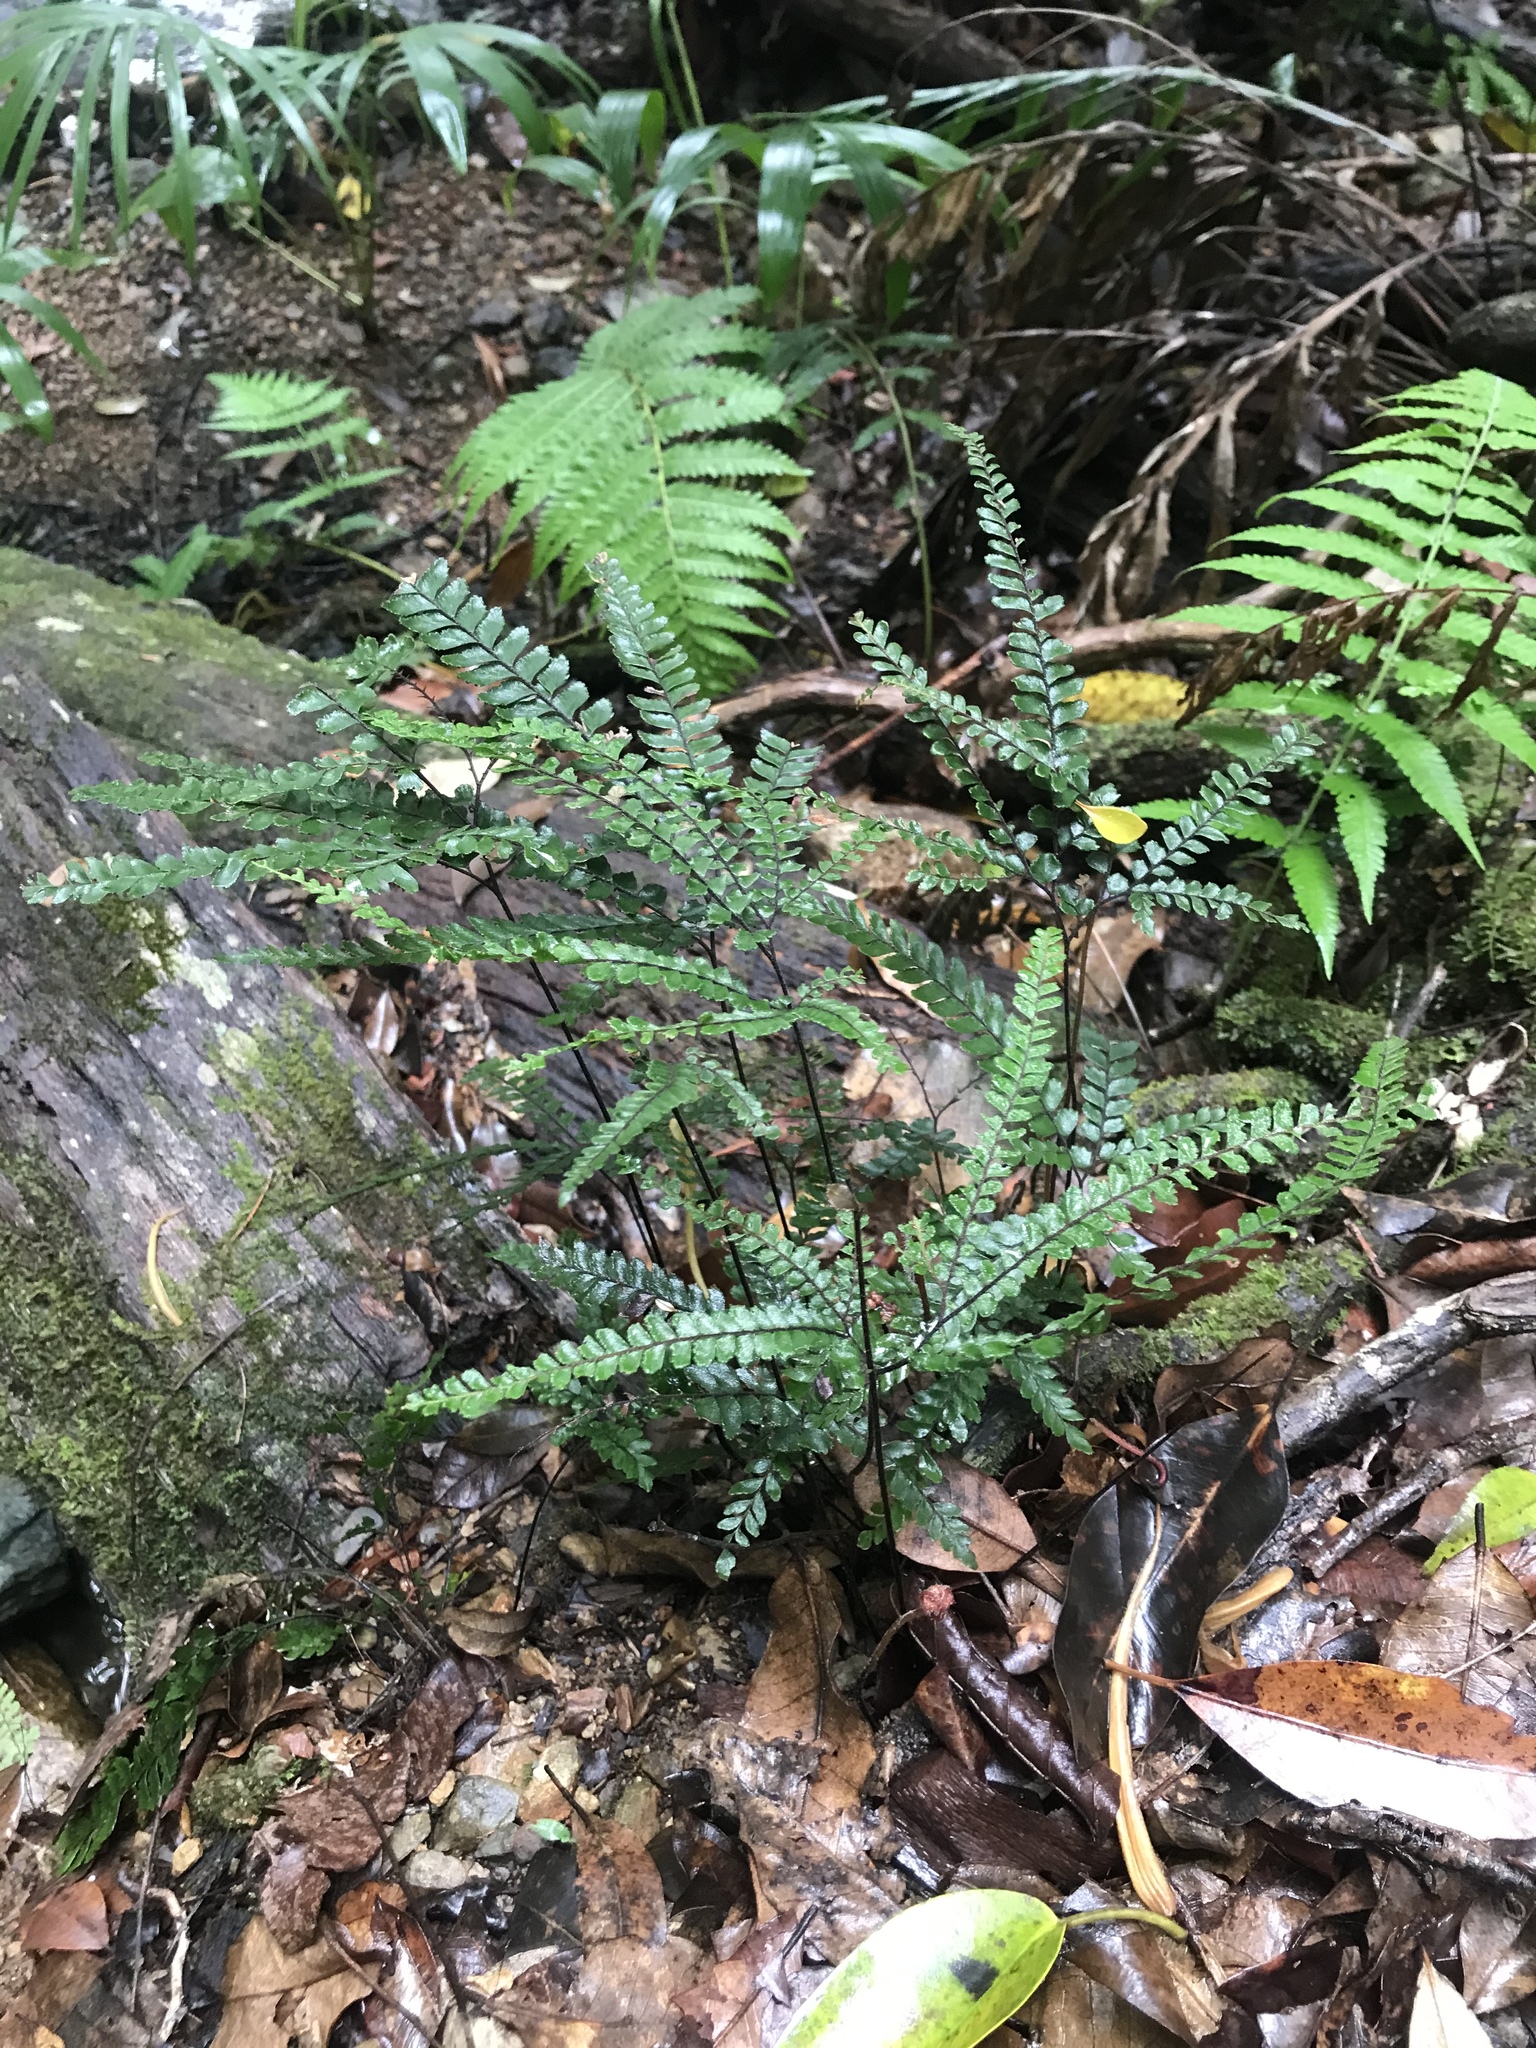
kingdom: Plantae
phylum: Tracheophyta
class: Polypodiopsida
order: Polypodiales
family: Pteridaceae
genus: Adiantum
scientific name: Adiantum hispidulum
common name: Rough maidenhair
